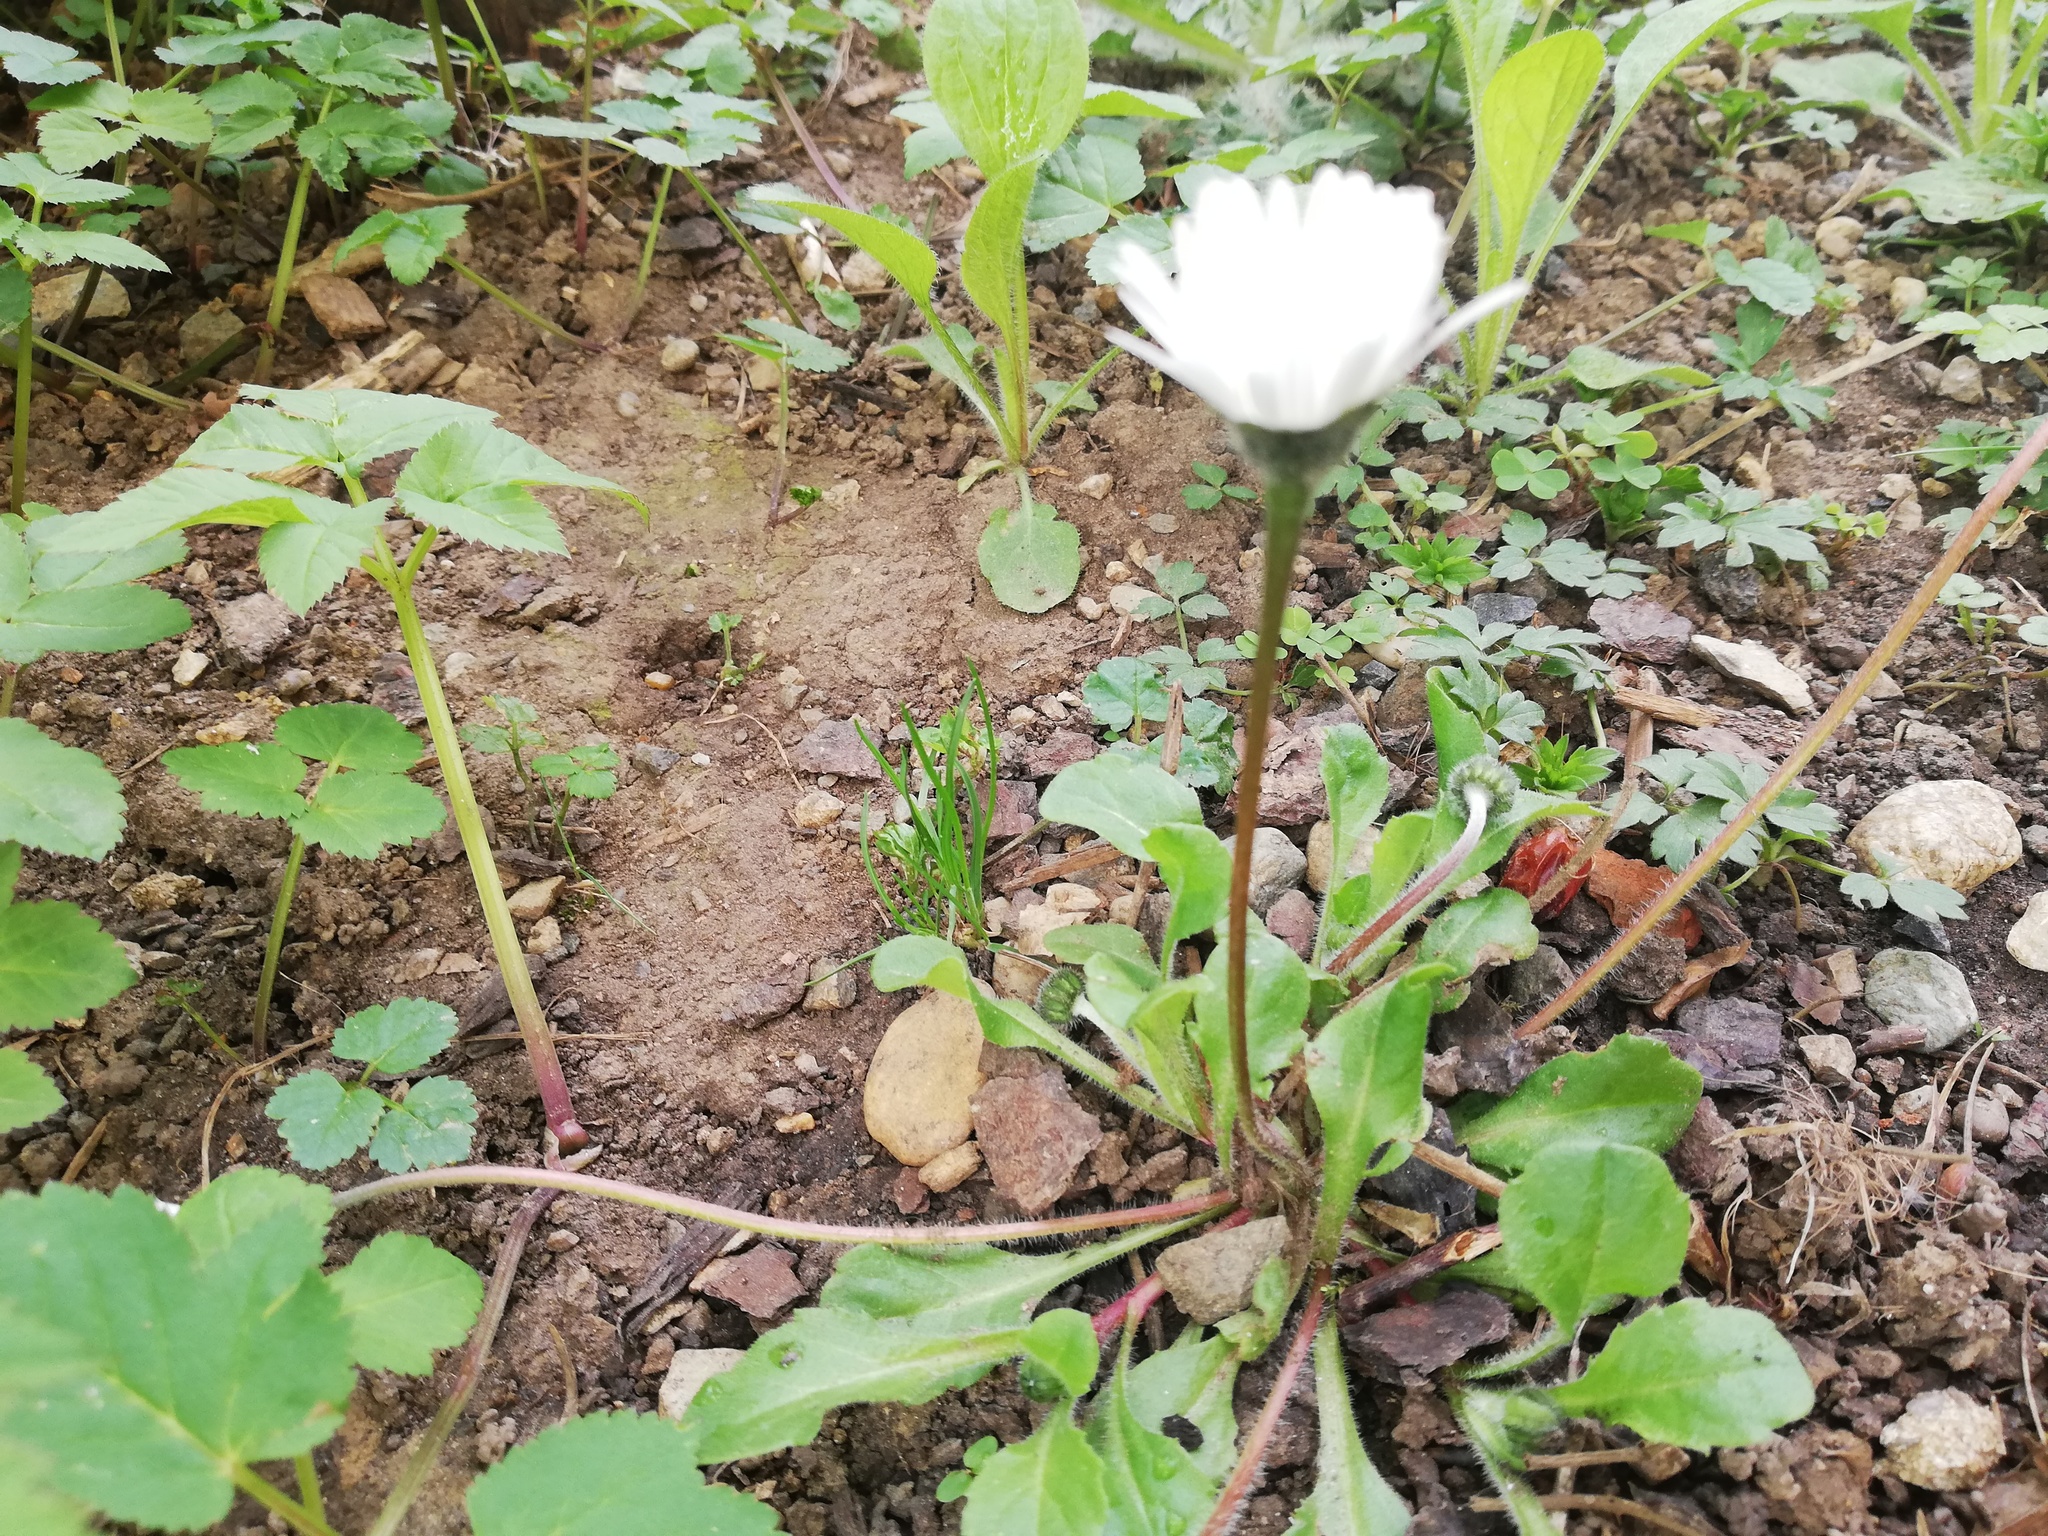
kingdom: Plantae
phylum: Tracheophyta
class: Magnoliopsida
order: Asterales
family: Asteraceae
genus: Bellis
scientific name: Bellis perennis
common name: Lawndaisy
